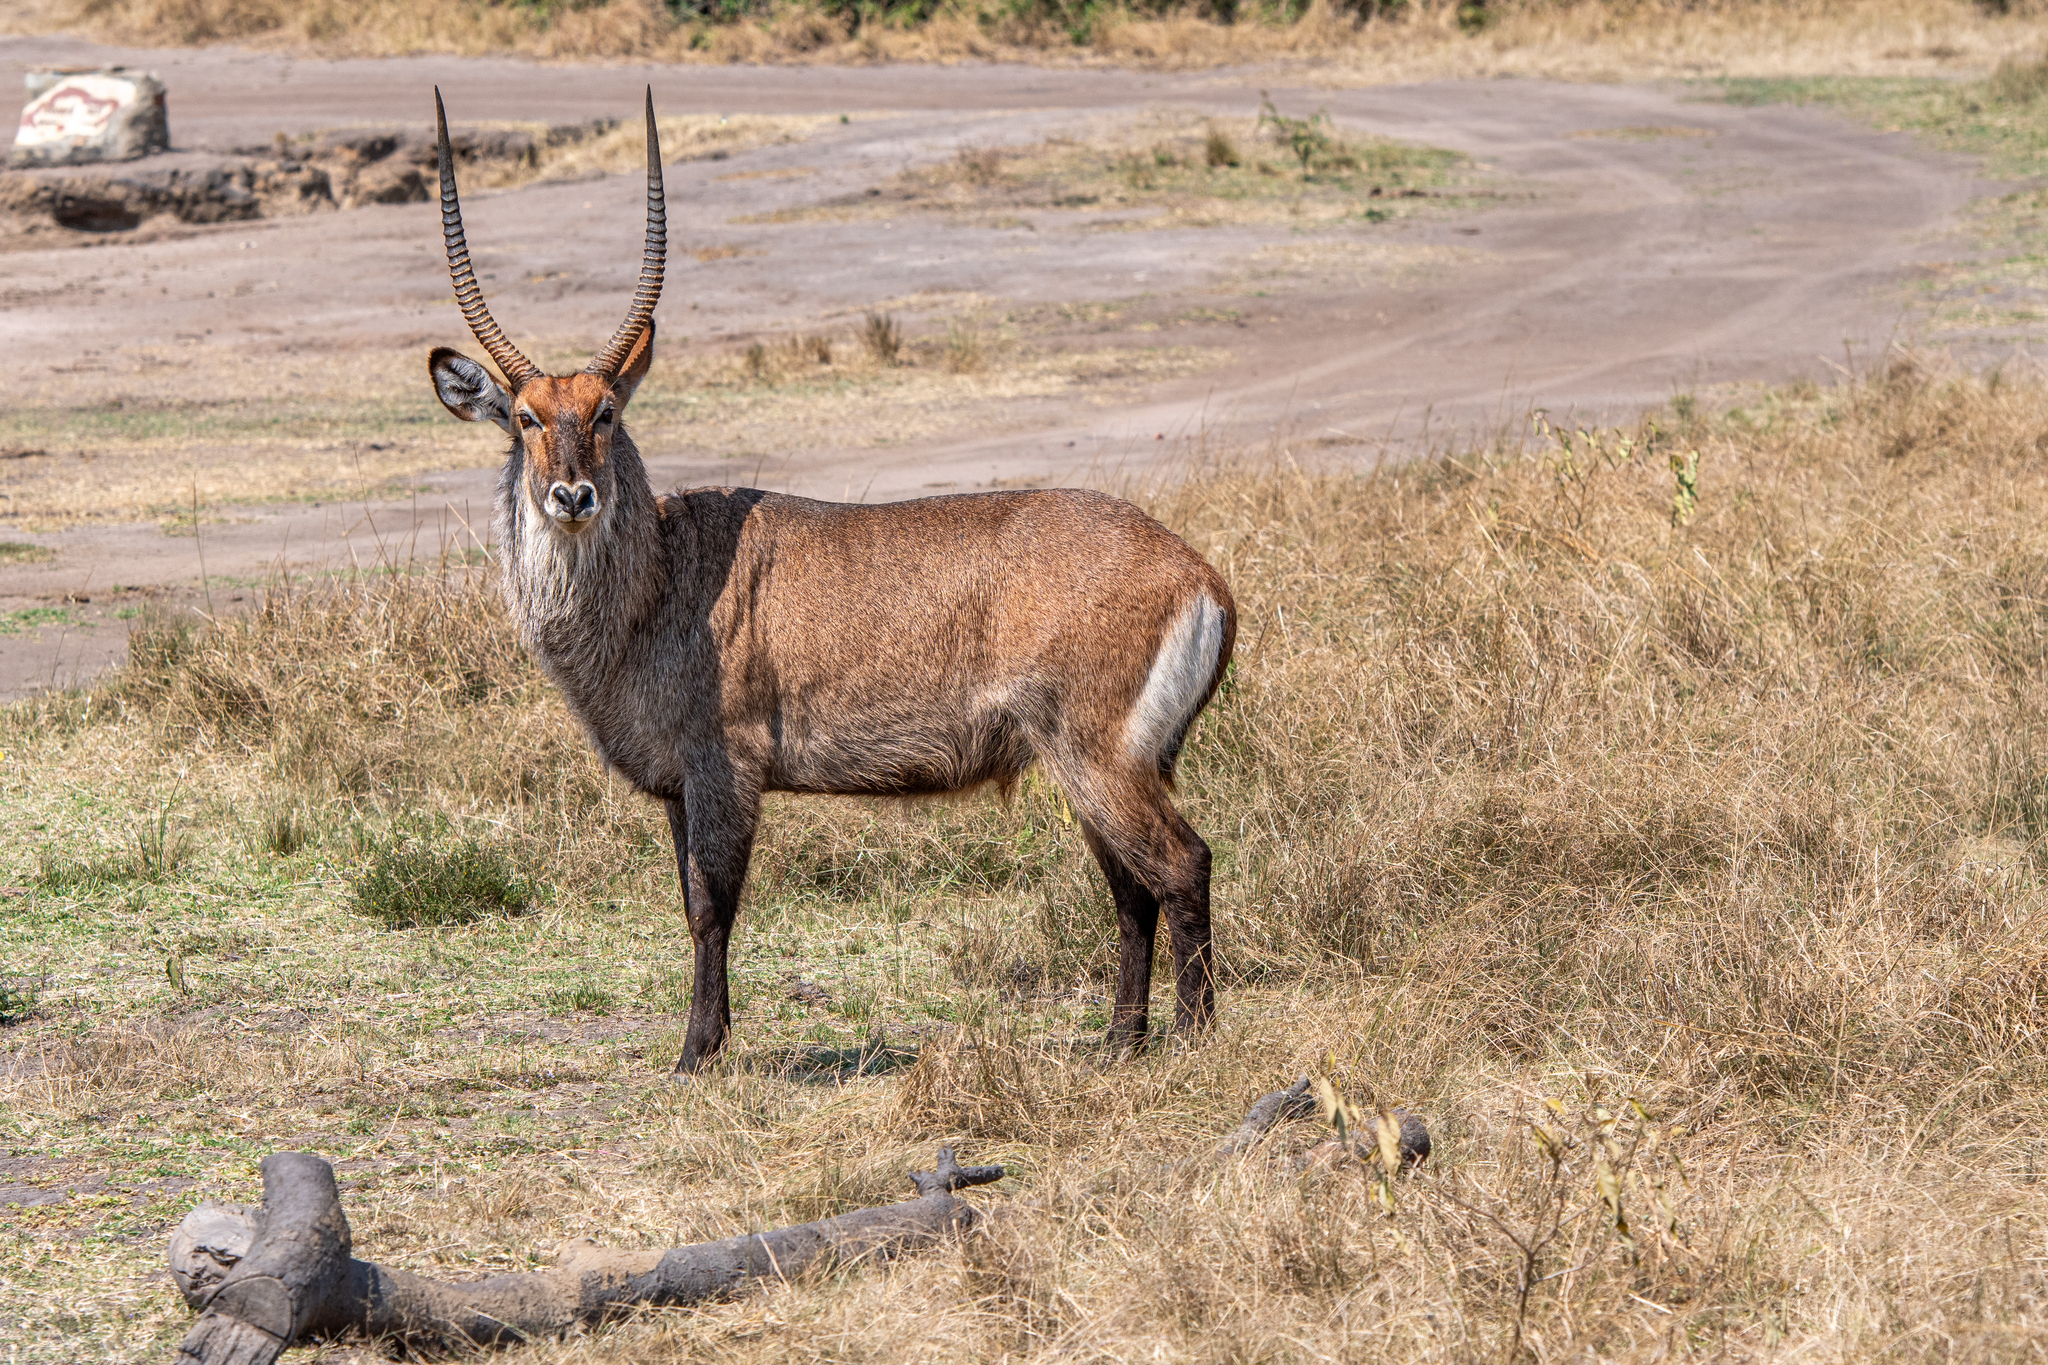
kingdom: Animalia
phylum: Chordata
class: Mammalia
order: Artiodactyla
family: Bovidae
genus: Kobus
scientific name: Kobus ellipsiprymnus
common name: Waterbuck
